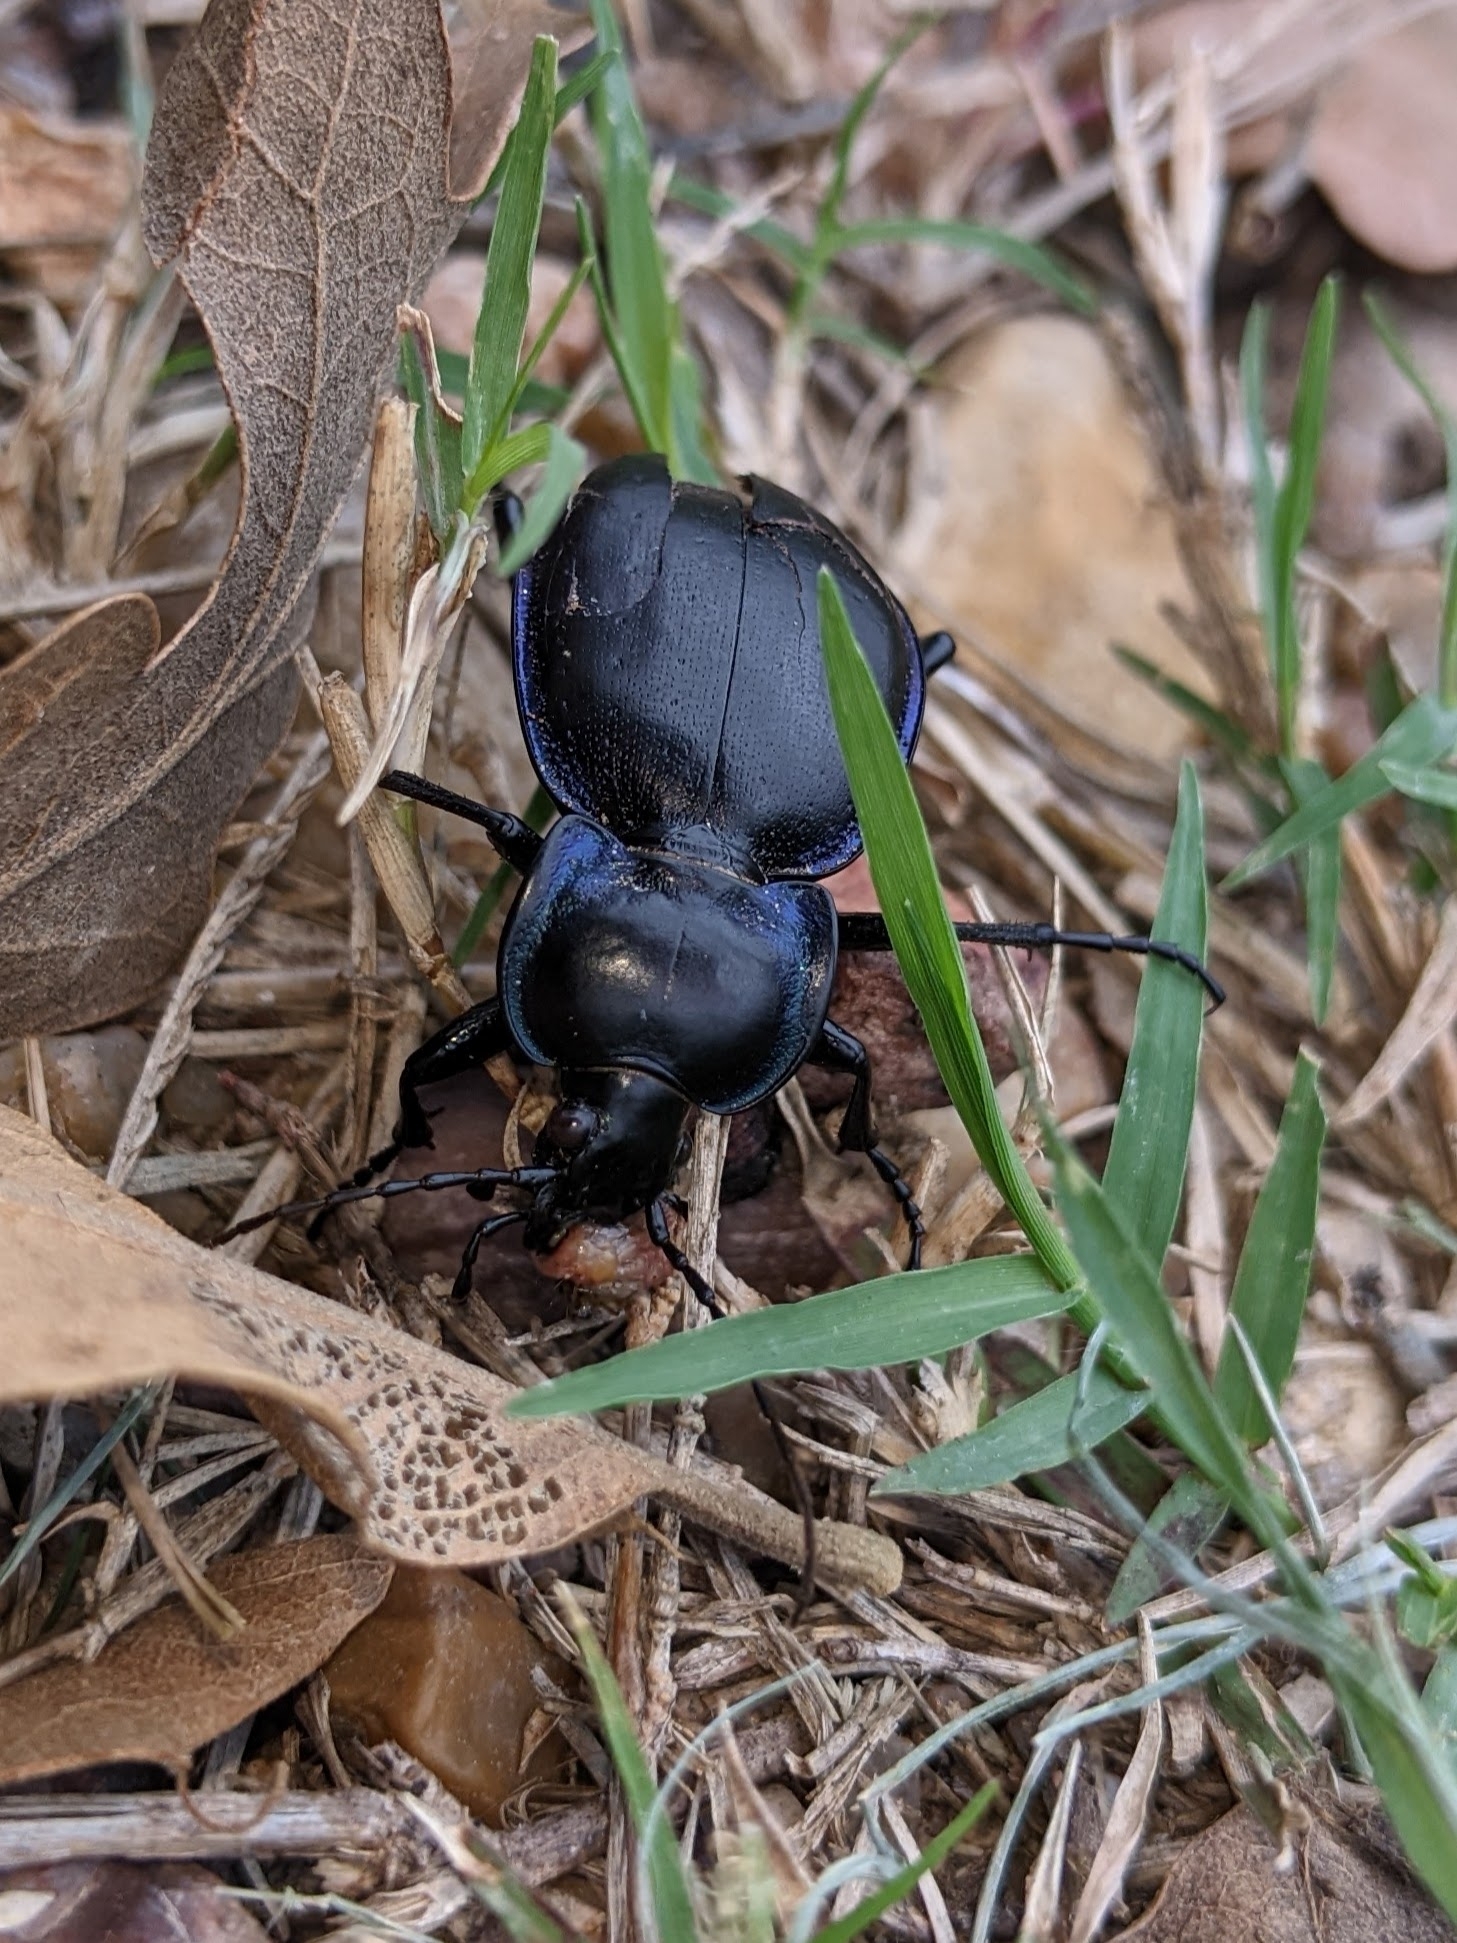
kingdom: Animalia
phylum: Arthropoda
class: Insecta
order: Coleoptera
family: Carabidae
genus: Carabus
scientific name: Carabus finitimus
